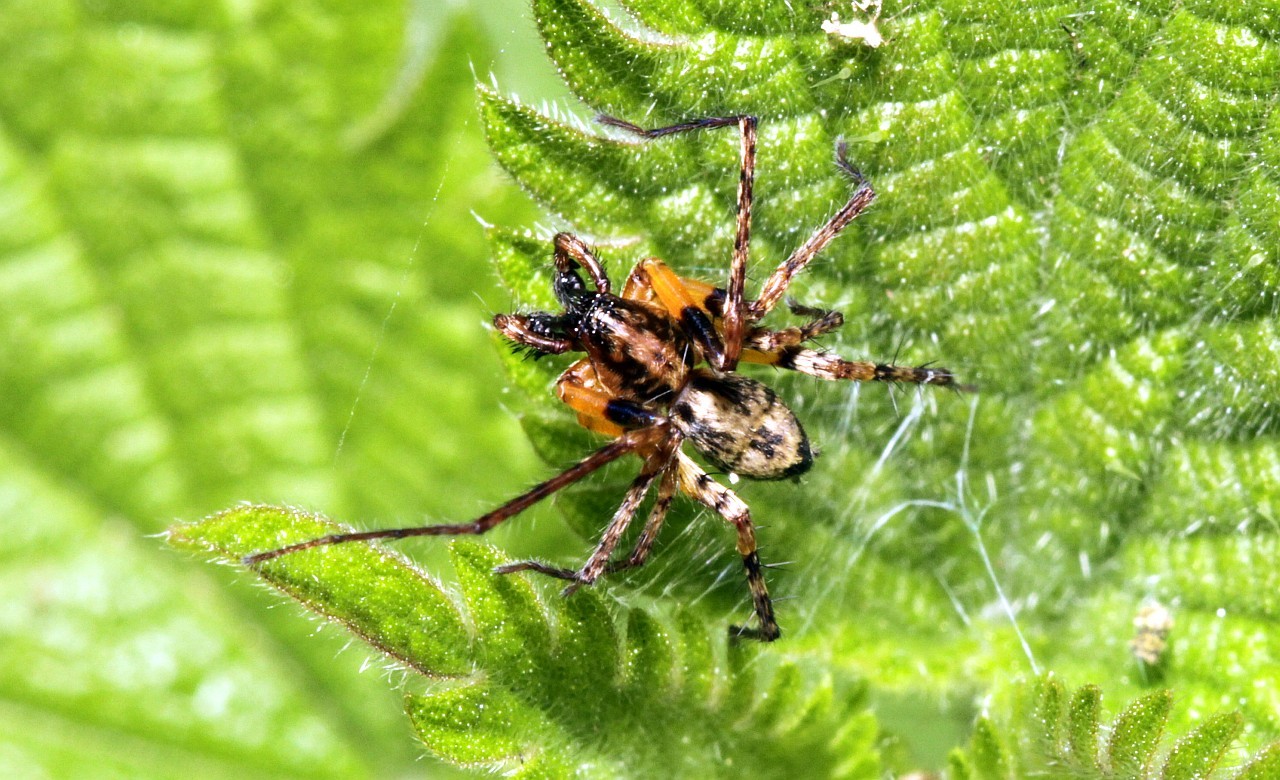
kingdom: Animalia
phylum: Arthropoda
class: Arachnida
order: Araneae
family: Anyphaenidae
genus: Anyphaena
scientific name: Anyphaena accentuata
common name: Buzzing spider
